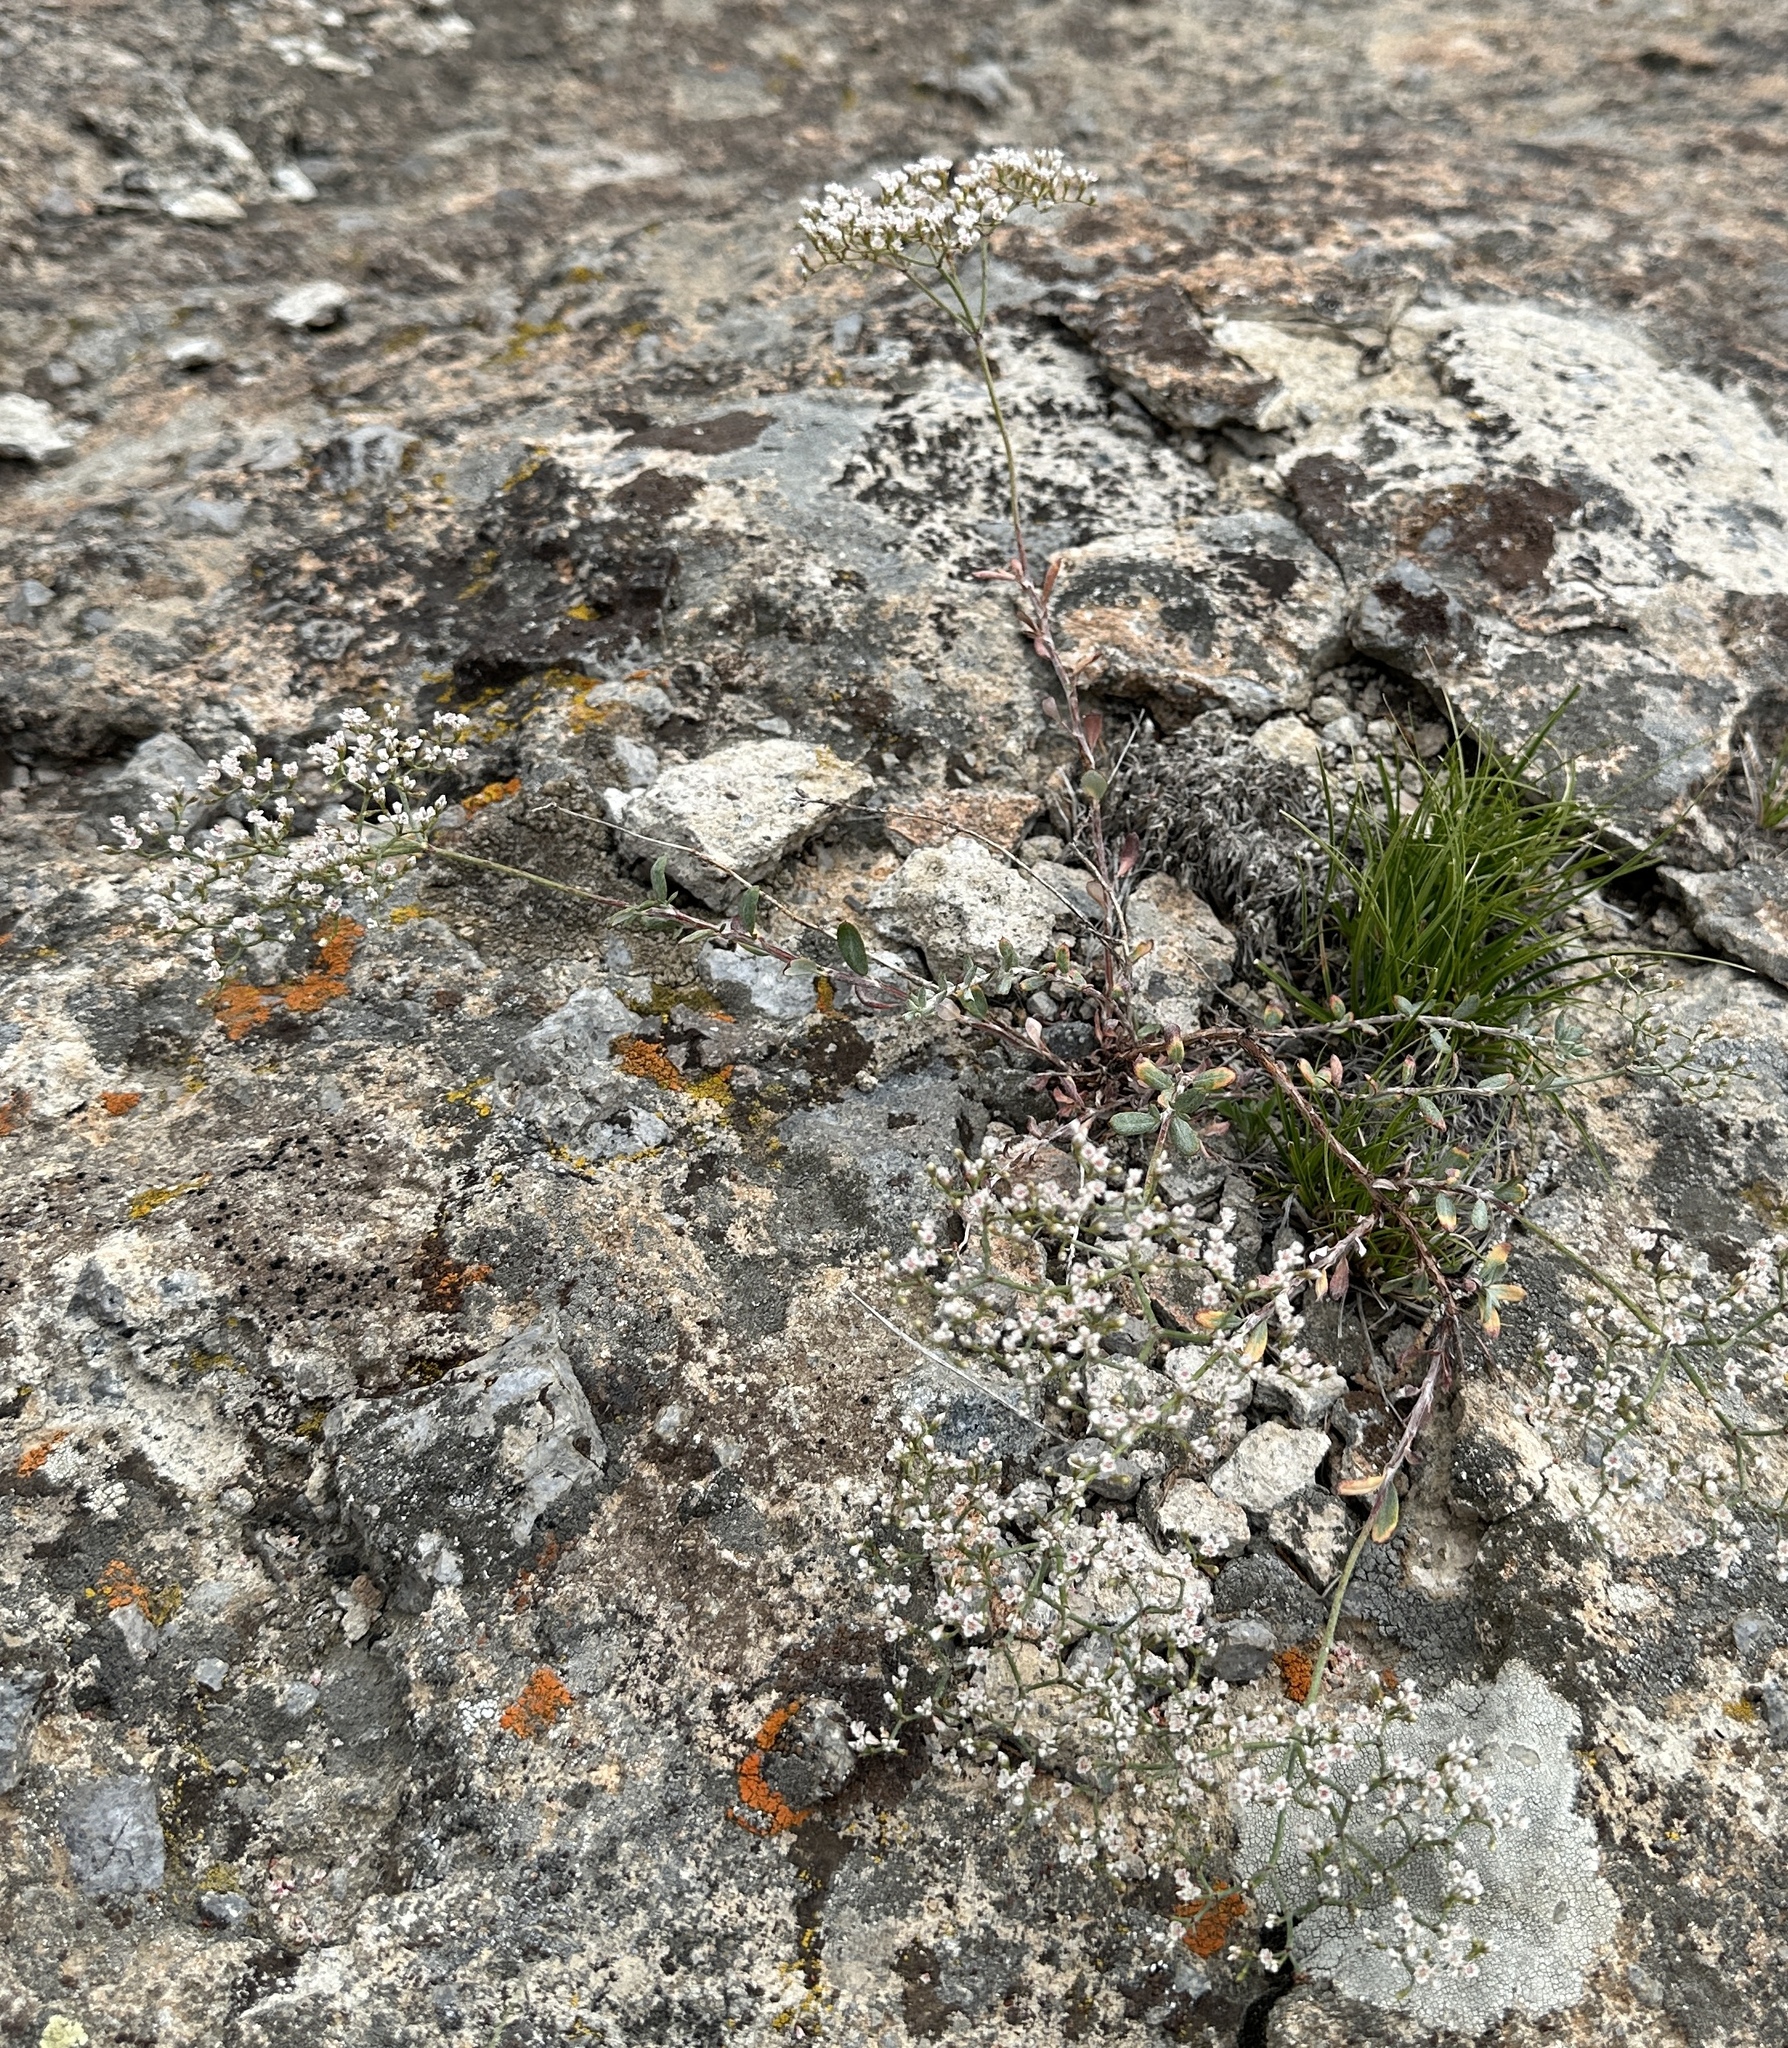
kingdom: Plantae
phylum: Tracheophyta
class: Magnoliopsida
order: Caryophyllales
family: Polygonaceae
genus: Eriogonum
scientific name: Eriogonum microtheca
